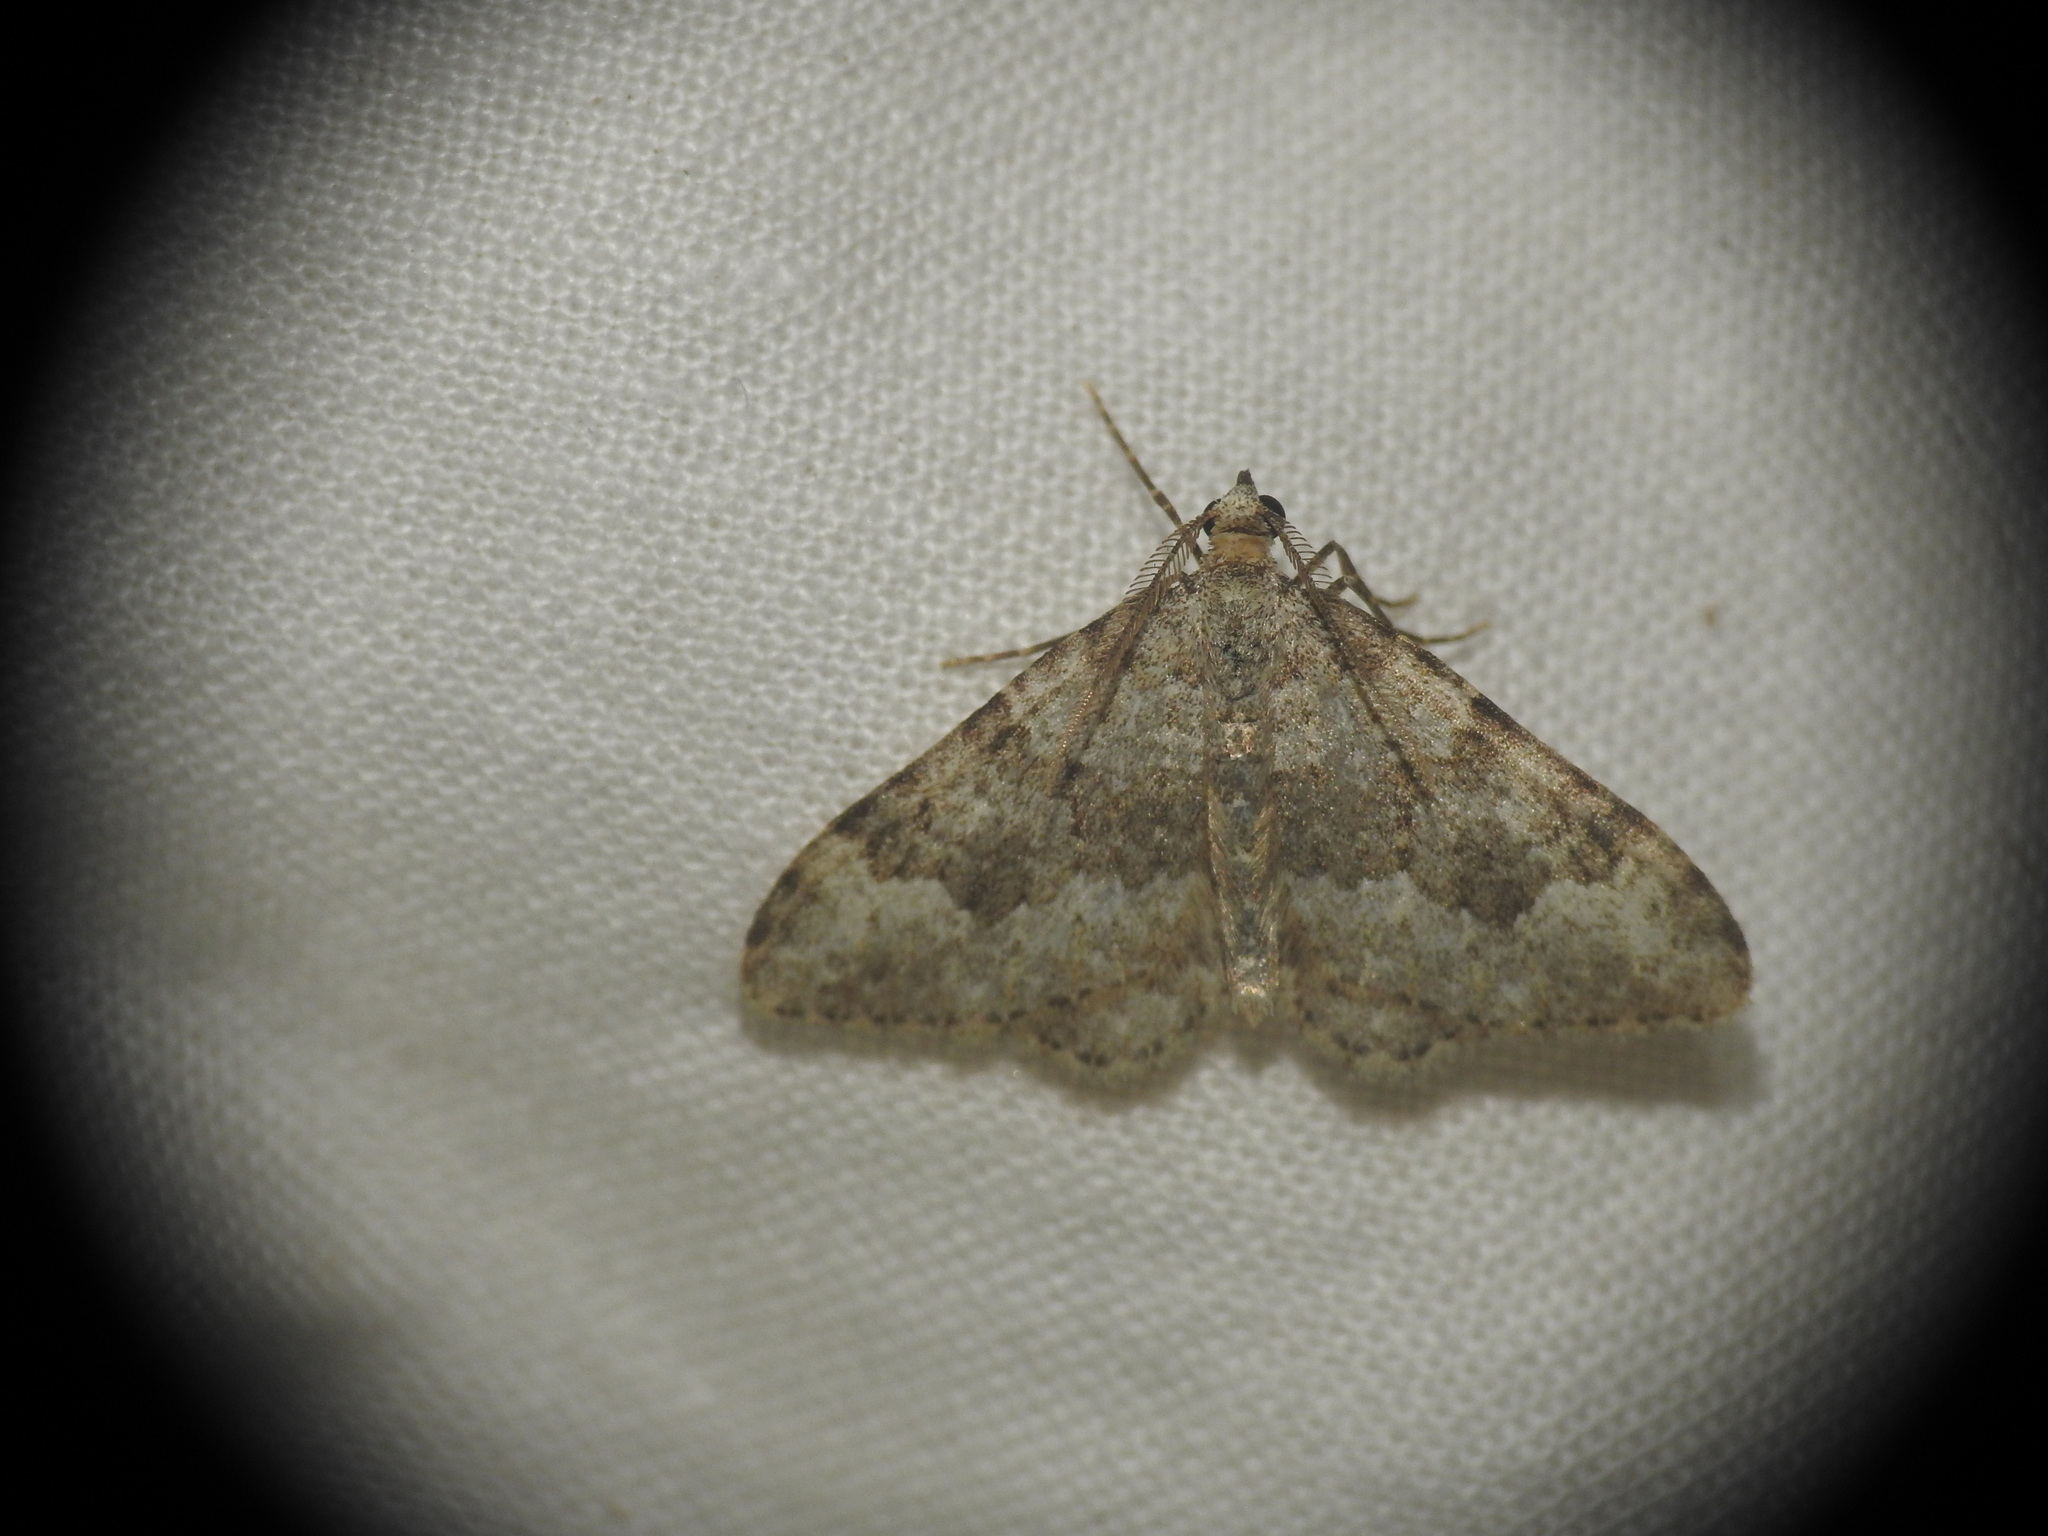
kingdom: Animalia
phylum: Arthropoda
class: Insecta
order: Lepidoptera
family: Geometridae
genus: Nebula
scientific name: Nebula salicata
